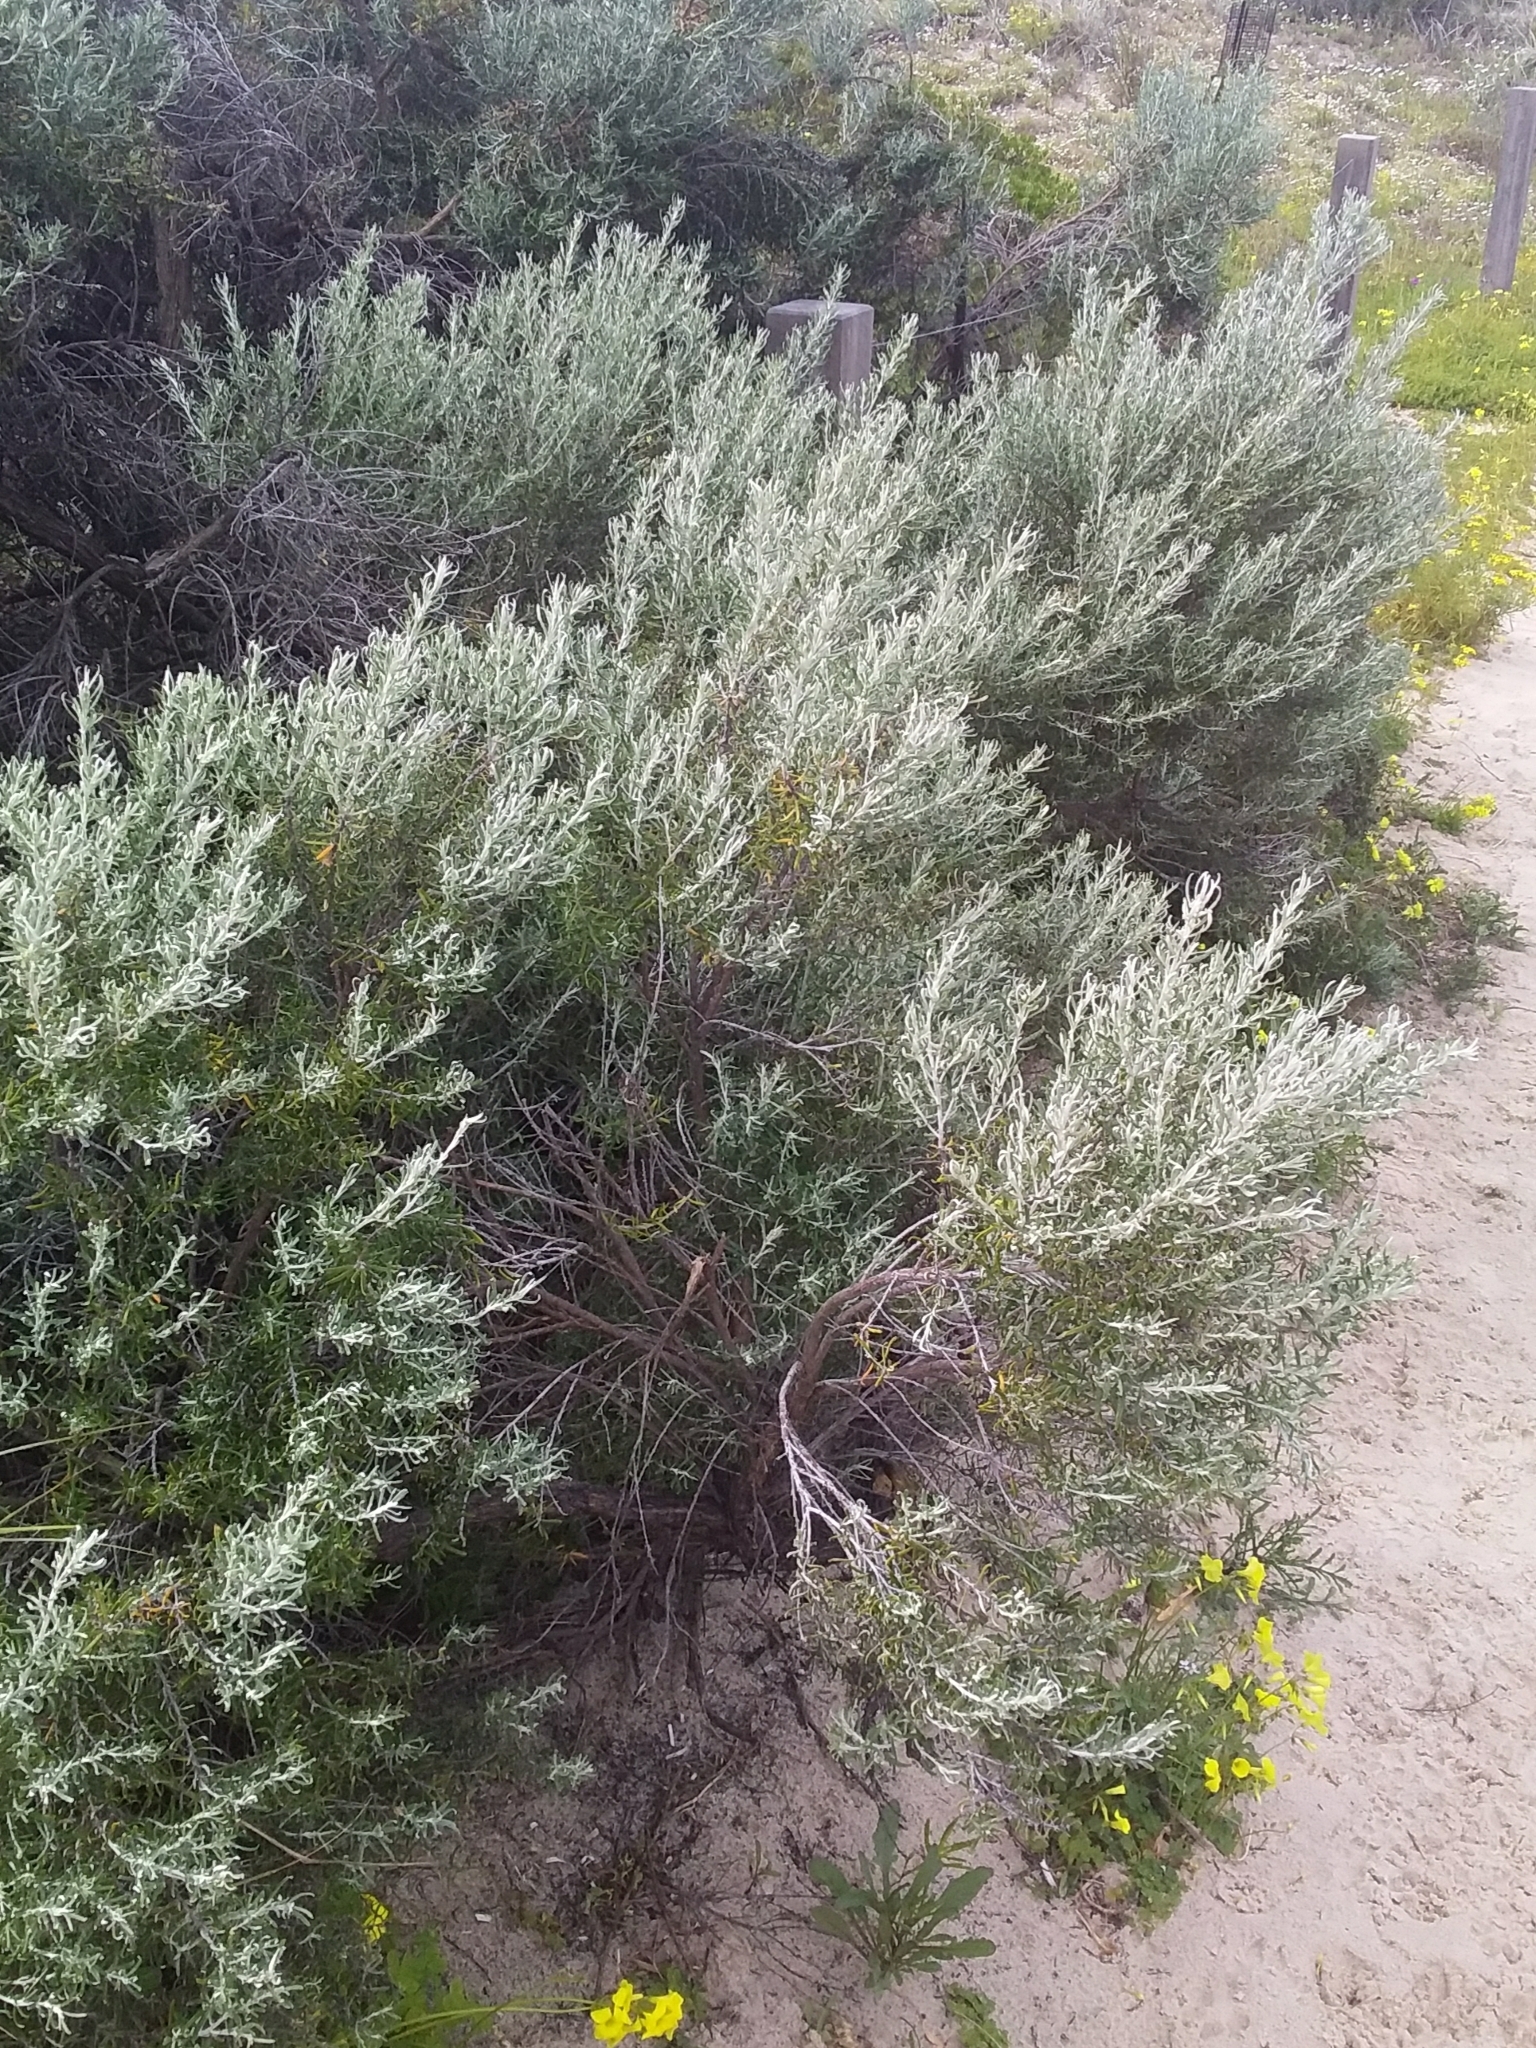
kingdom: Plantae
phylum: Tracheophyta
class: Magnoliopsida
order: Asterales
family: Asteraceae
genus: Olearia
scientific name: Olearia axillaris
